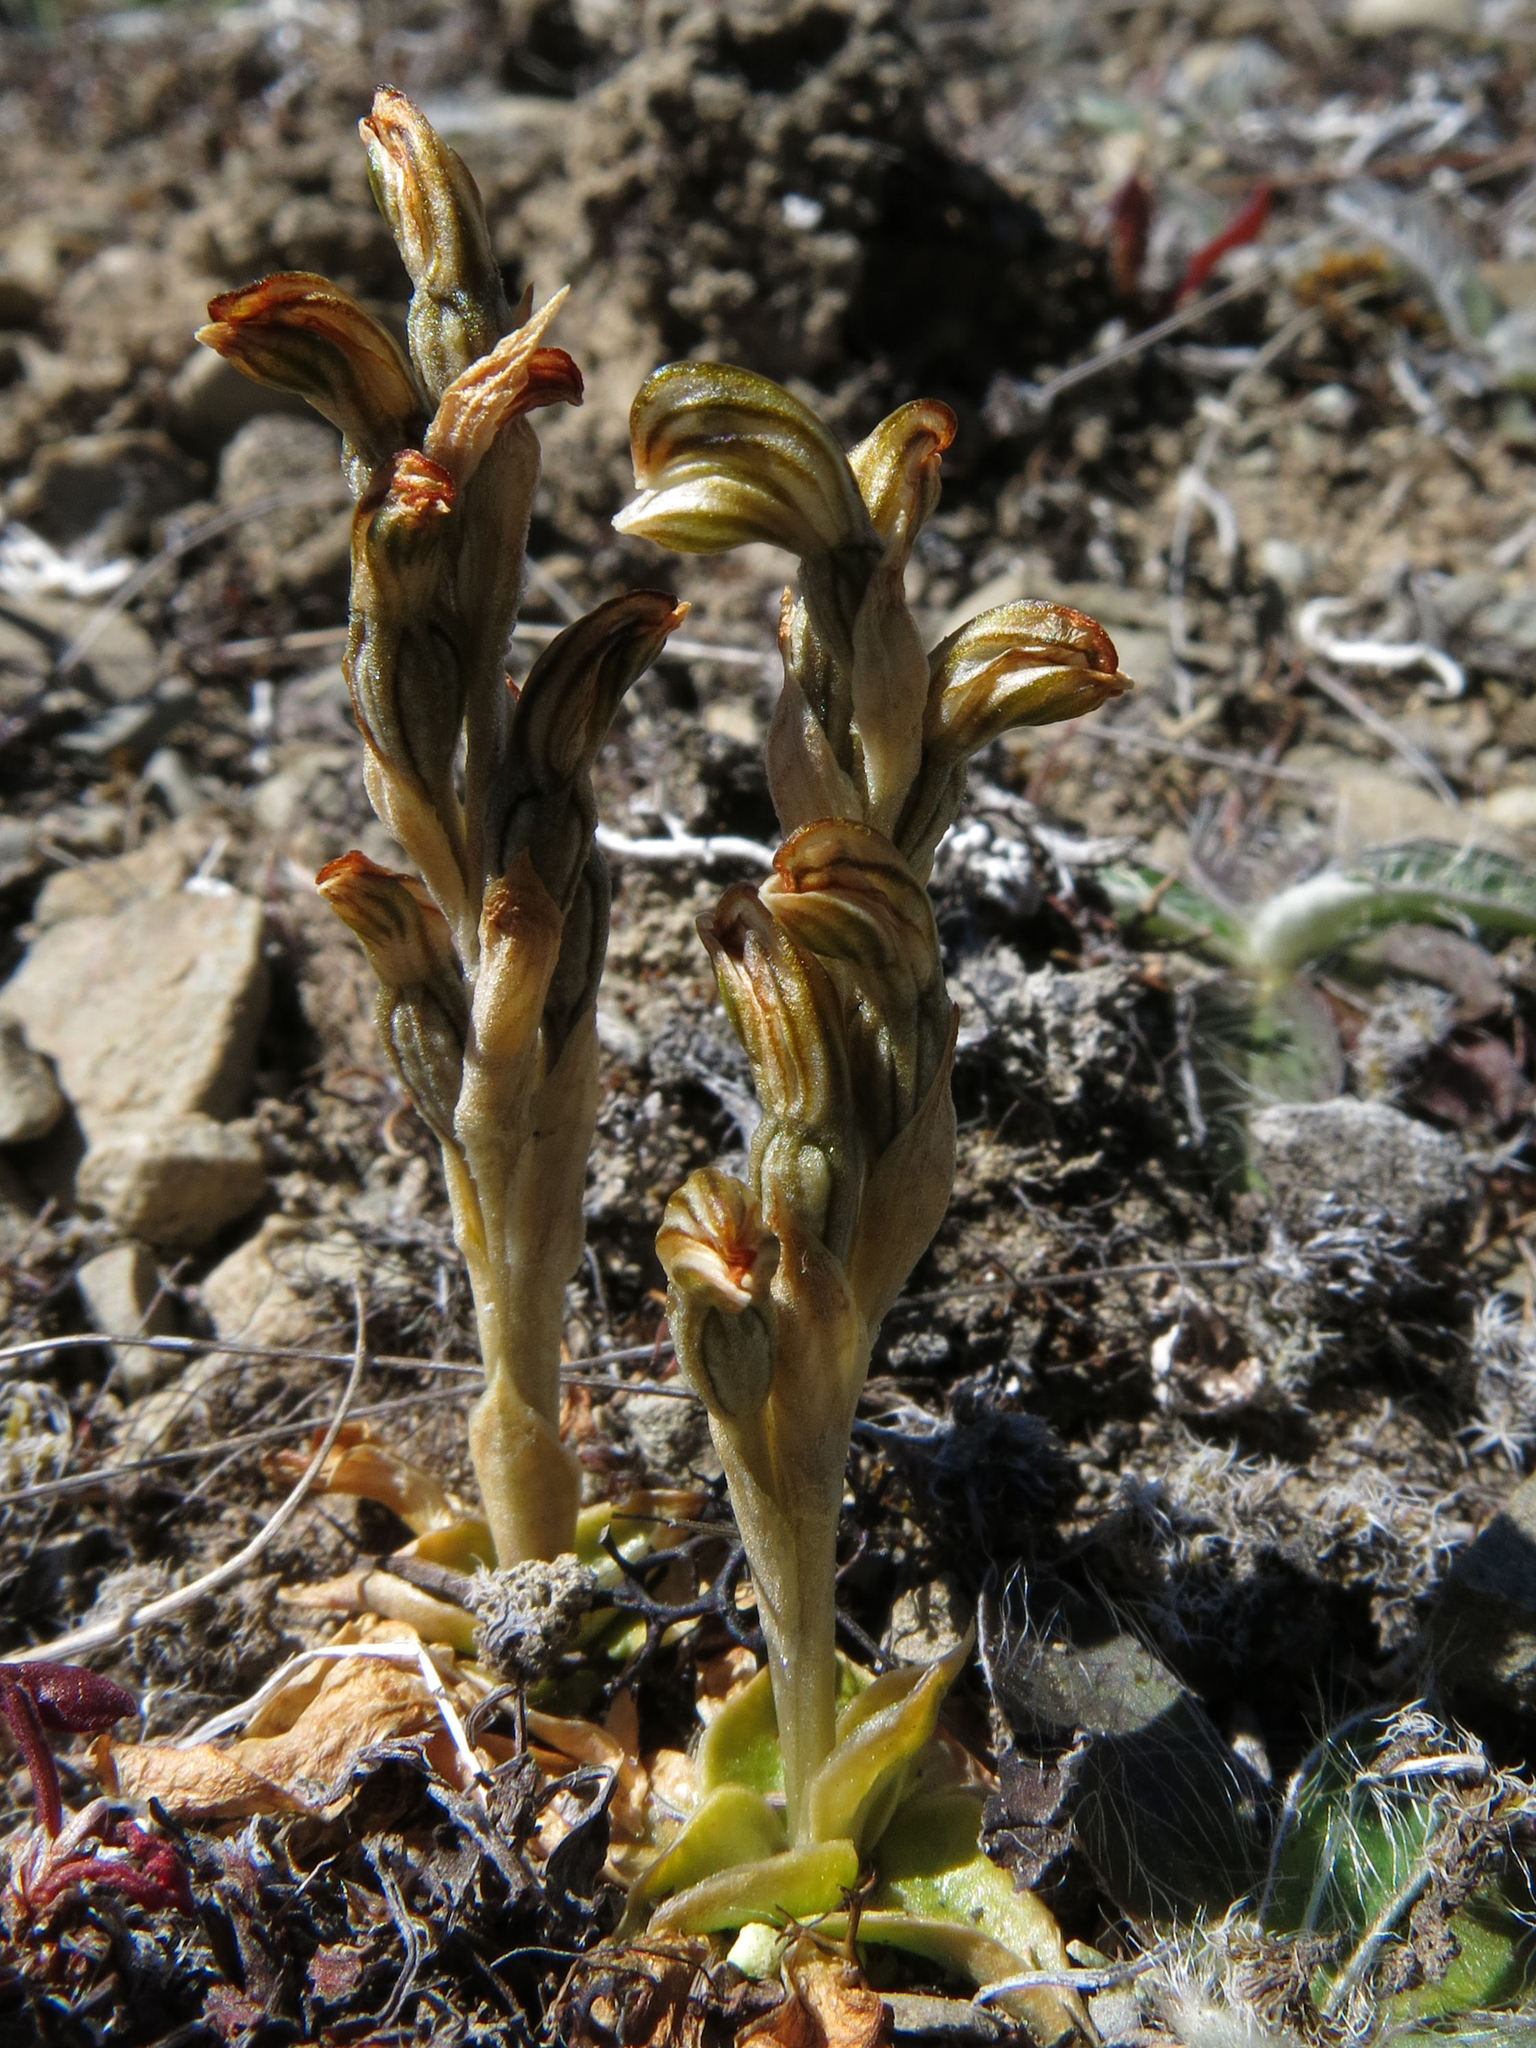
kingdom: Plantae
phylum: Tracheophyta
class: Liliopsida
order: Asparagales
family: Orchidaceae
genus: Pterostylis
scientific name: Pterostylis tristis
